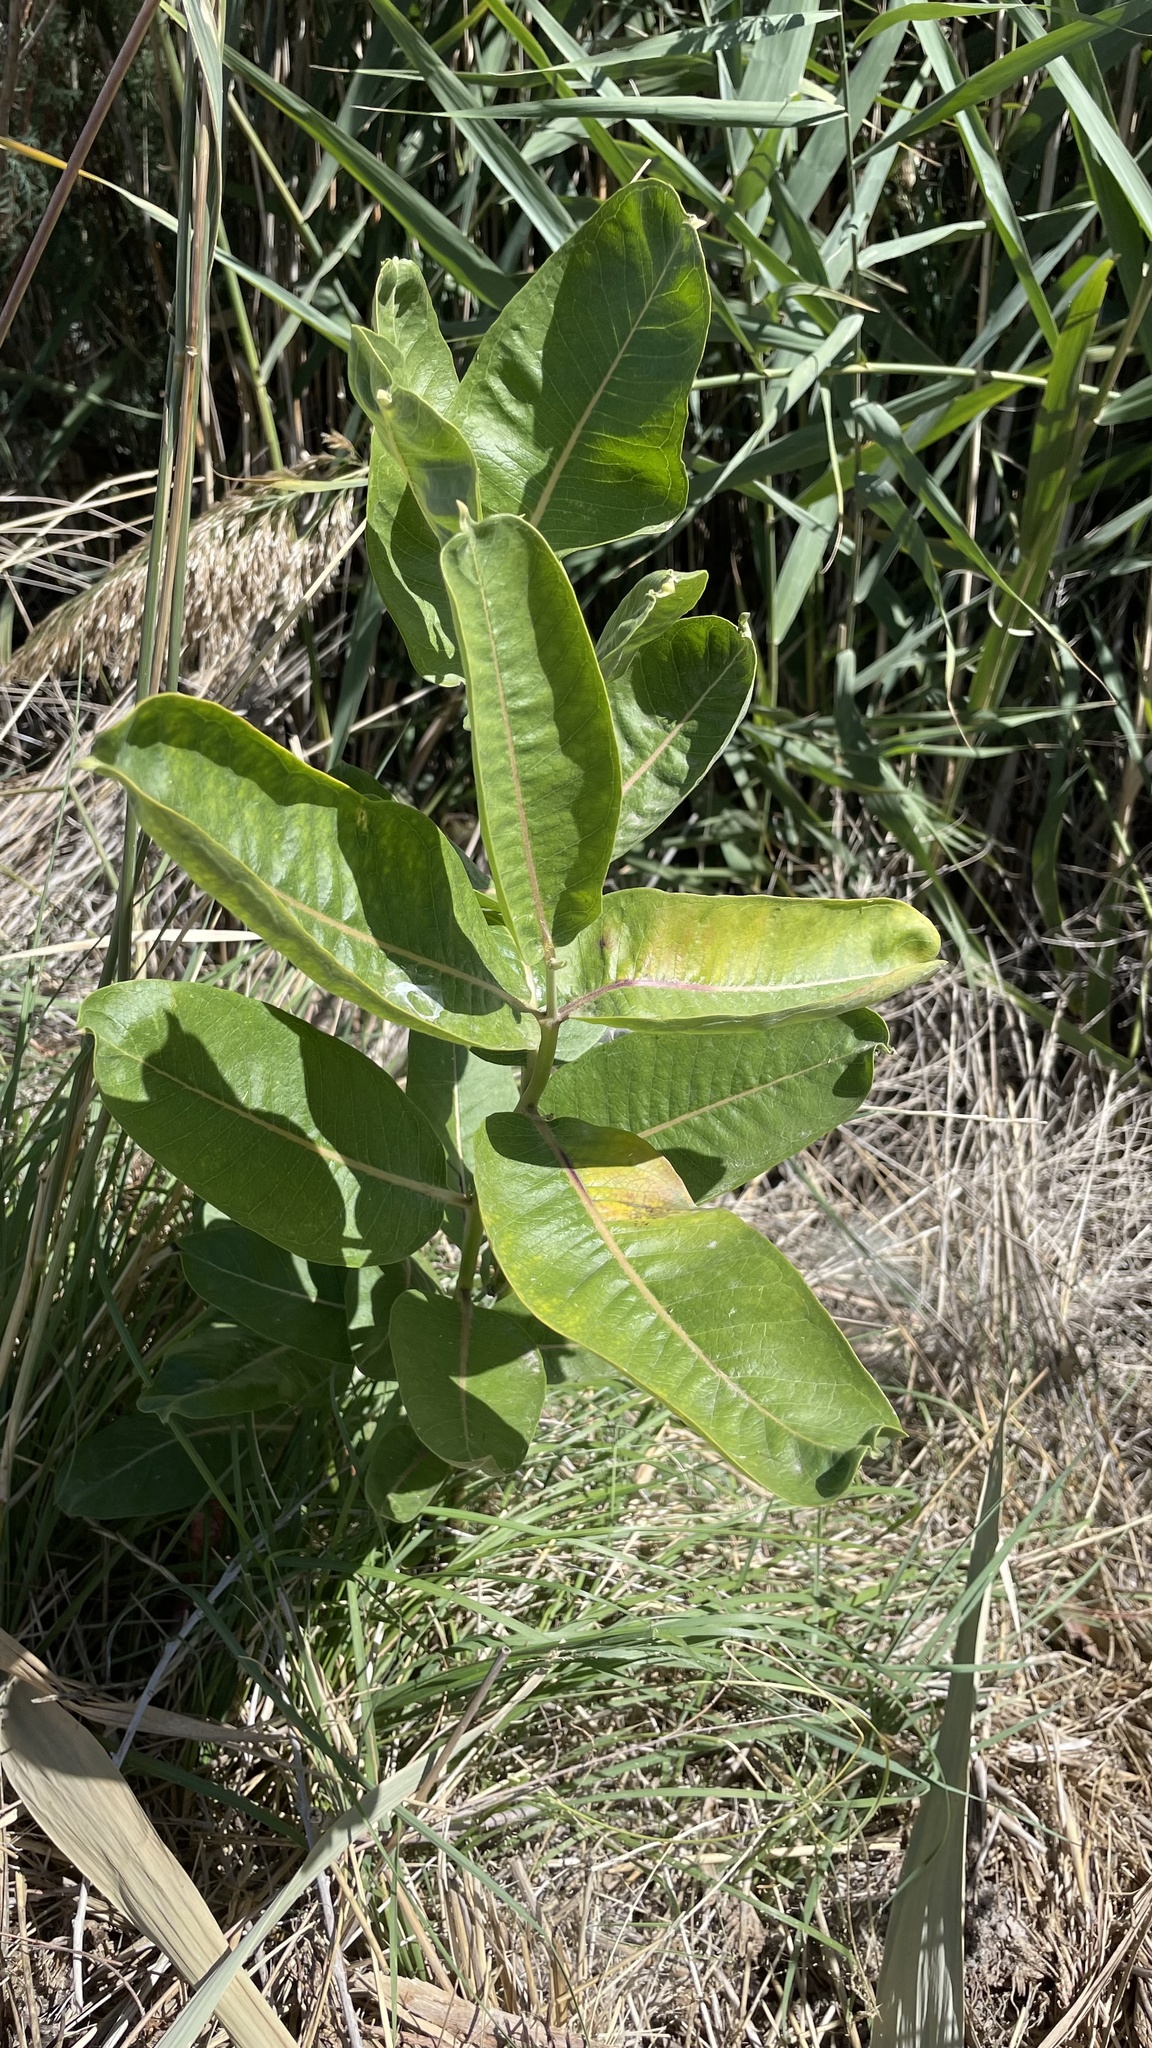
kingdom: Plantae
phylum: Tracheophyta
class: Magnoliopsida
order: Gentianales
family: Apocynaceae
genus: Asclepias
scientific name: Asclepias speciosa
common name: Showy milkweed
